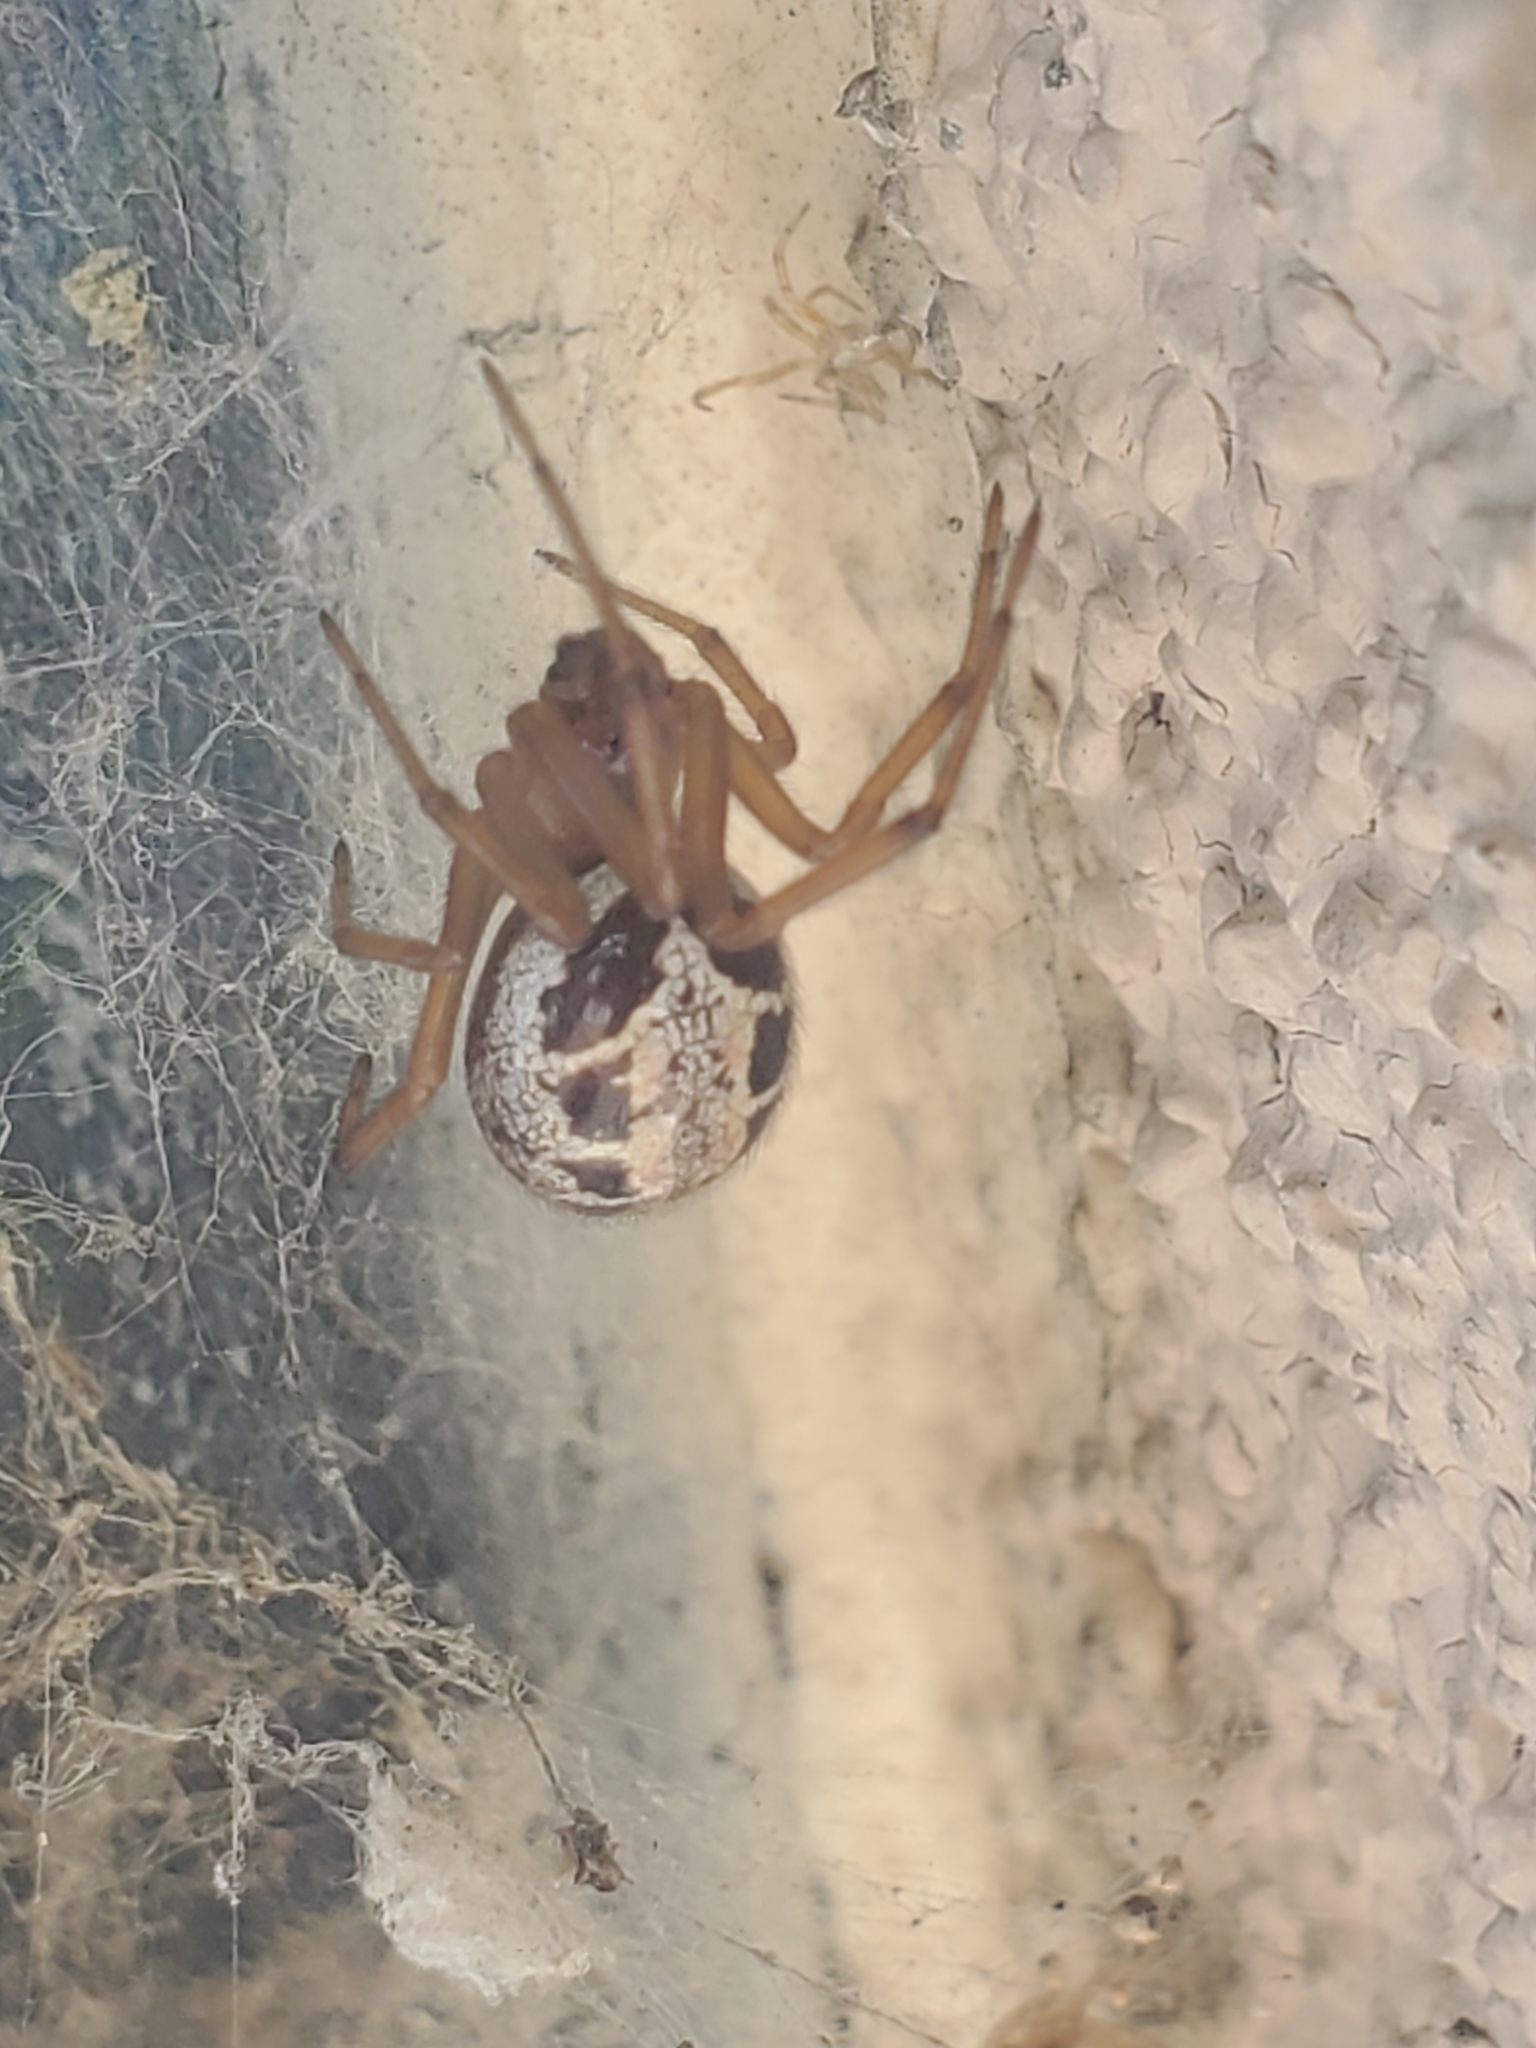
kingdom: Animalia
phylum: Arthropoda
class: Arachnida
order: Araneae
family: Theridiidae
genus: Steatoda
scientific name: Steatoda nobilis
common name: Cobweb weaver
